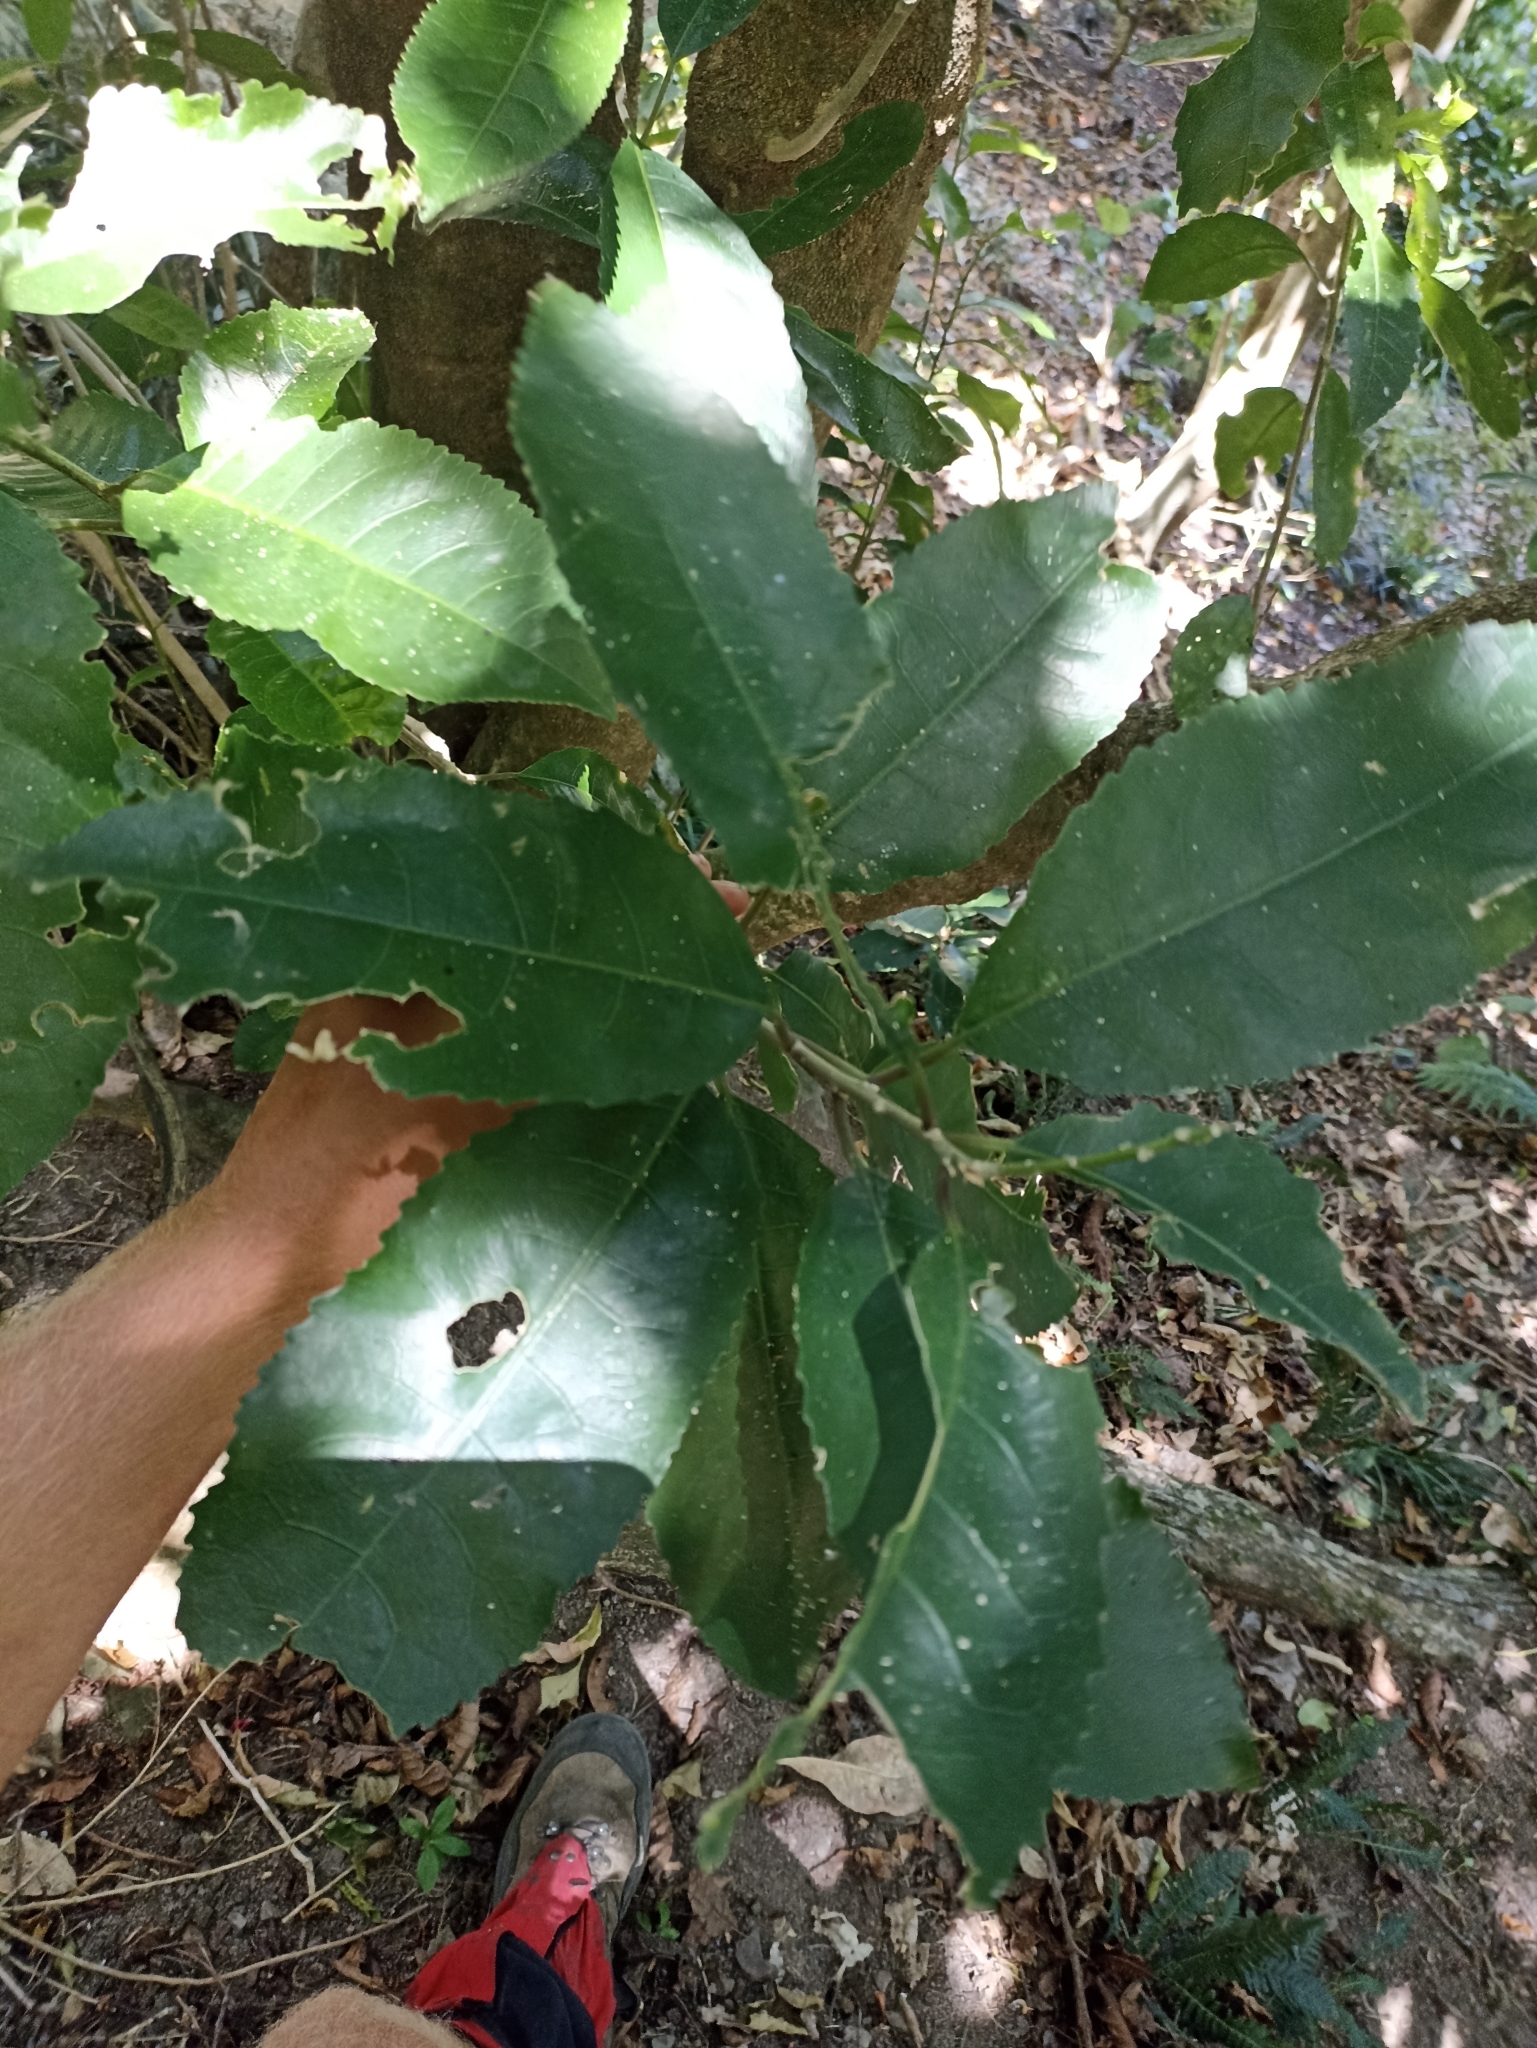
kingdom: Plantae
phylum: Tracheophyta
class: Magnoliopsida
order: Malpighiales
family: Violaceae
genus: Melicytus
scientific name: Melicytus ramiflorus
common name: Mahoe
